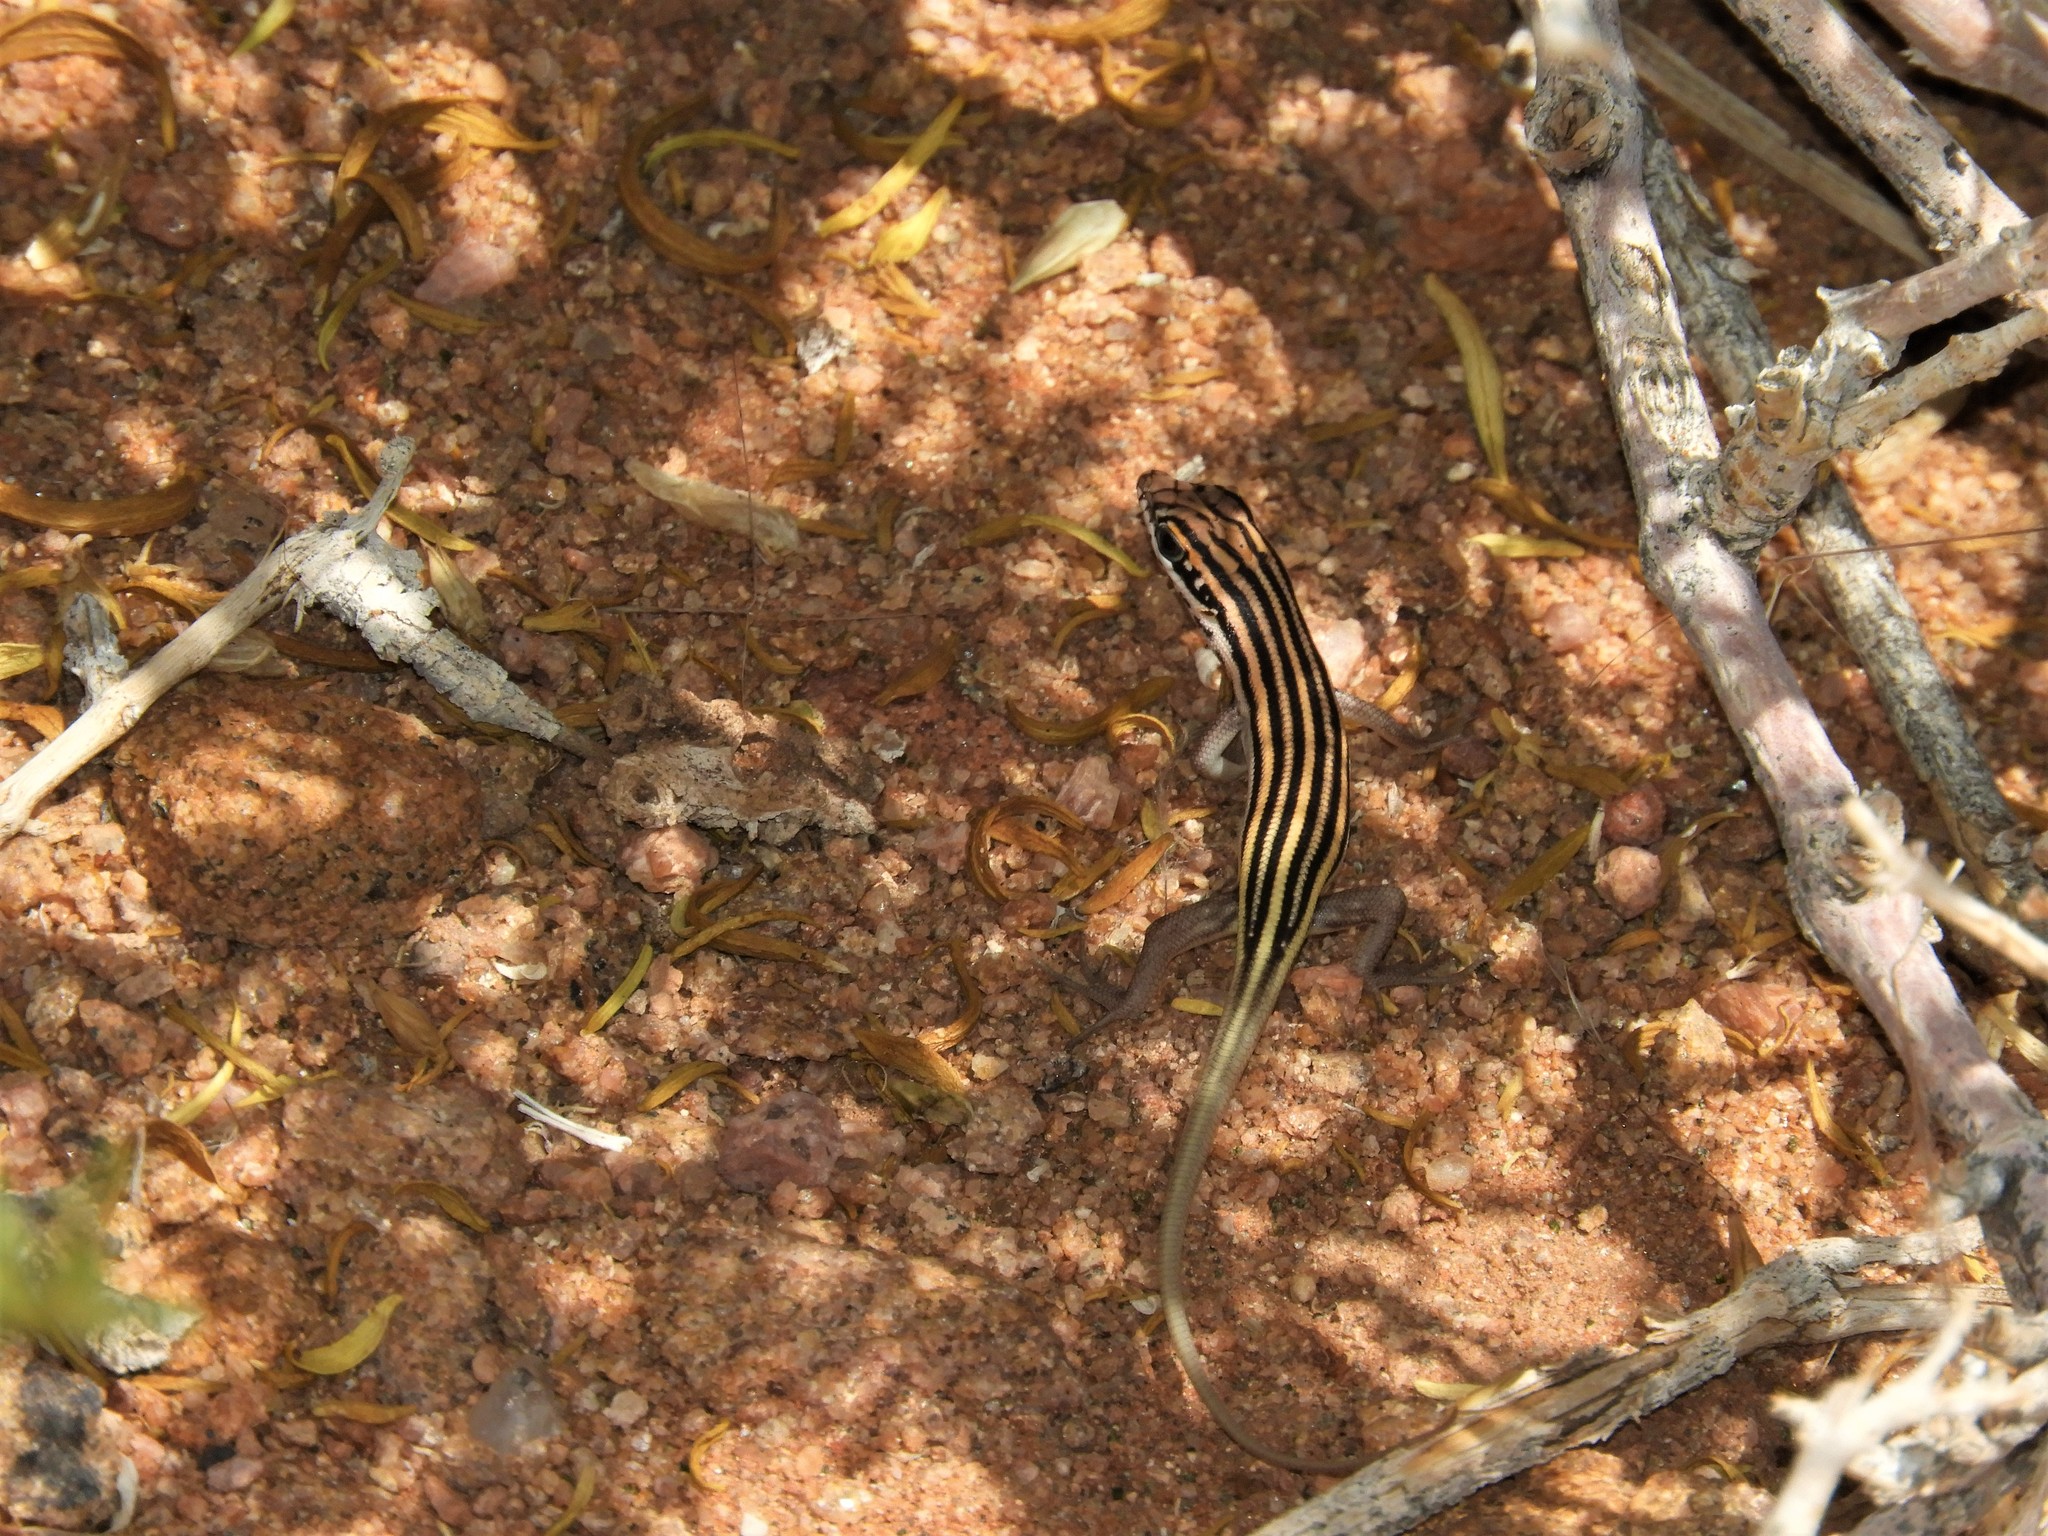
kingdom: Animalia
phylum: Chordata
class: Squamata
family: Scincidae
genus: Trachylepis
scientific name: Trachylepis sulcata
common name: Western rock skink
